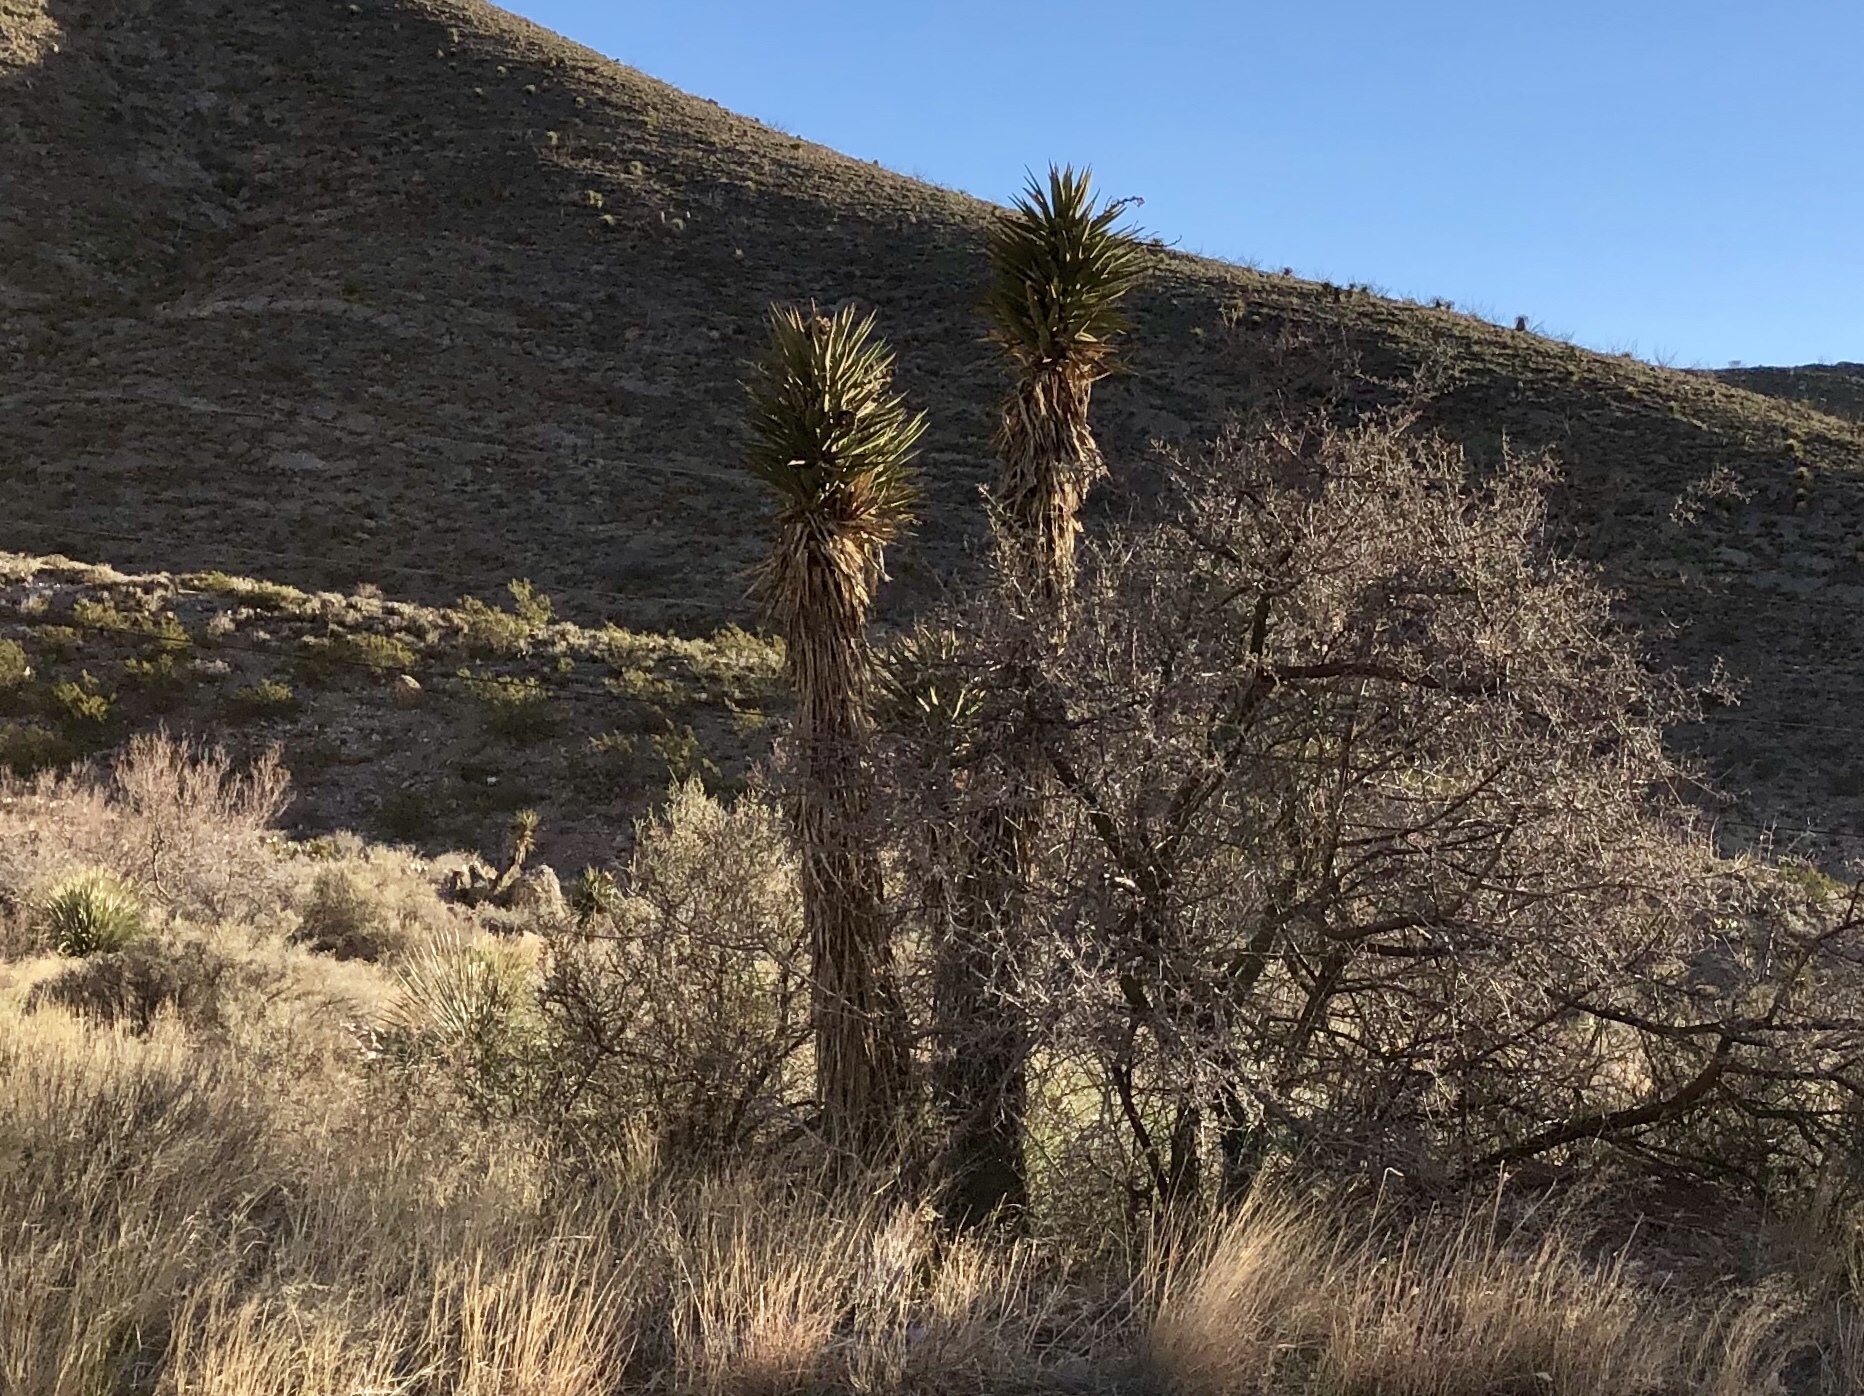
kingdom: Plantae
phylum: Tracheophyta
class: Liliopsida
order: Asparagales
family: Asparagaceae
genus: Yucca
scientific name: Yucca treculiana
